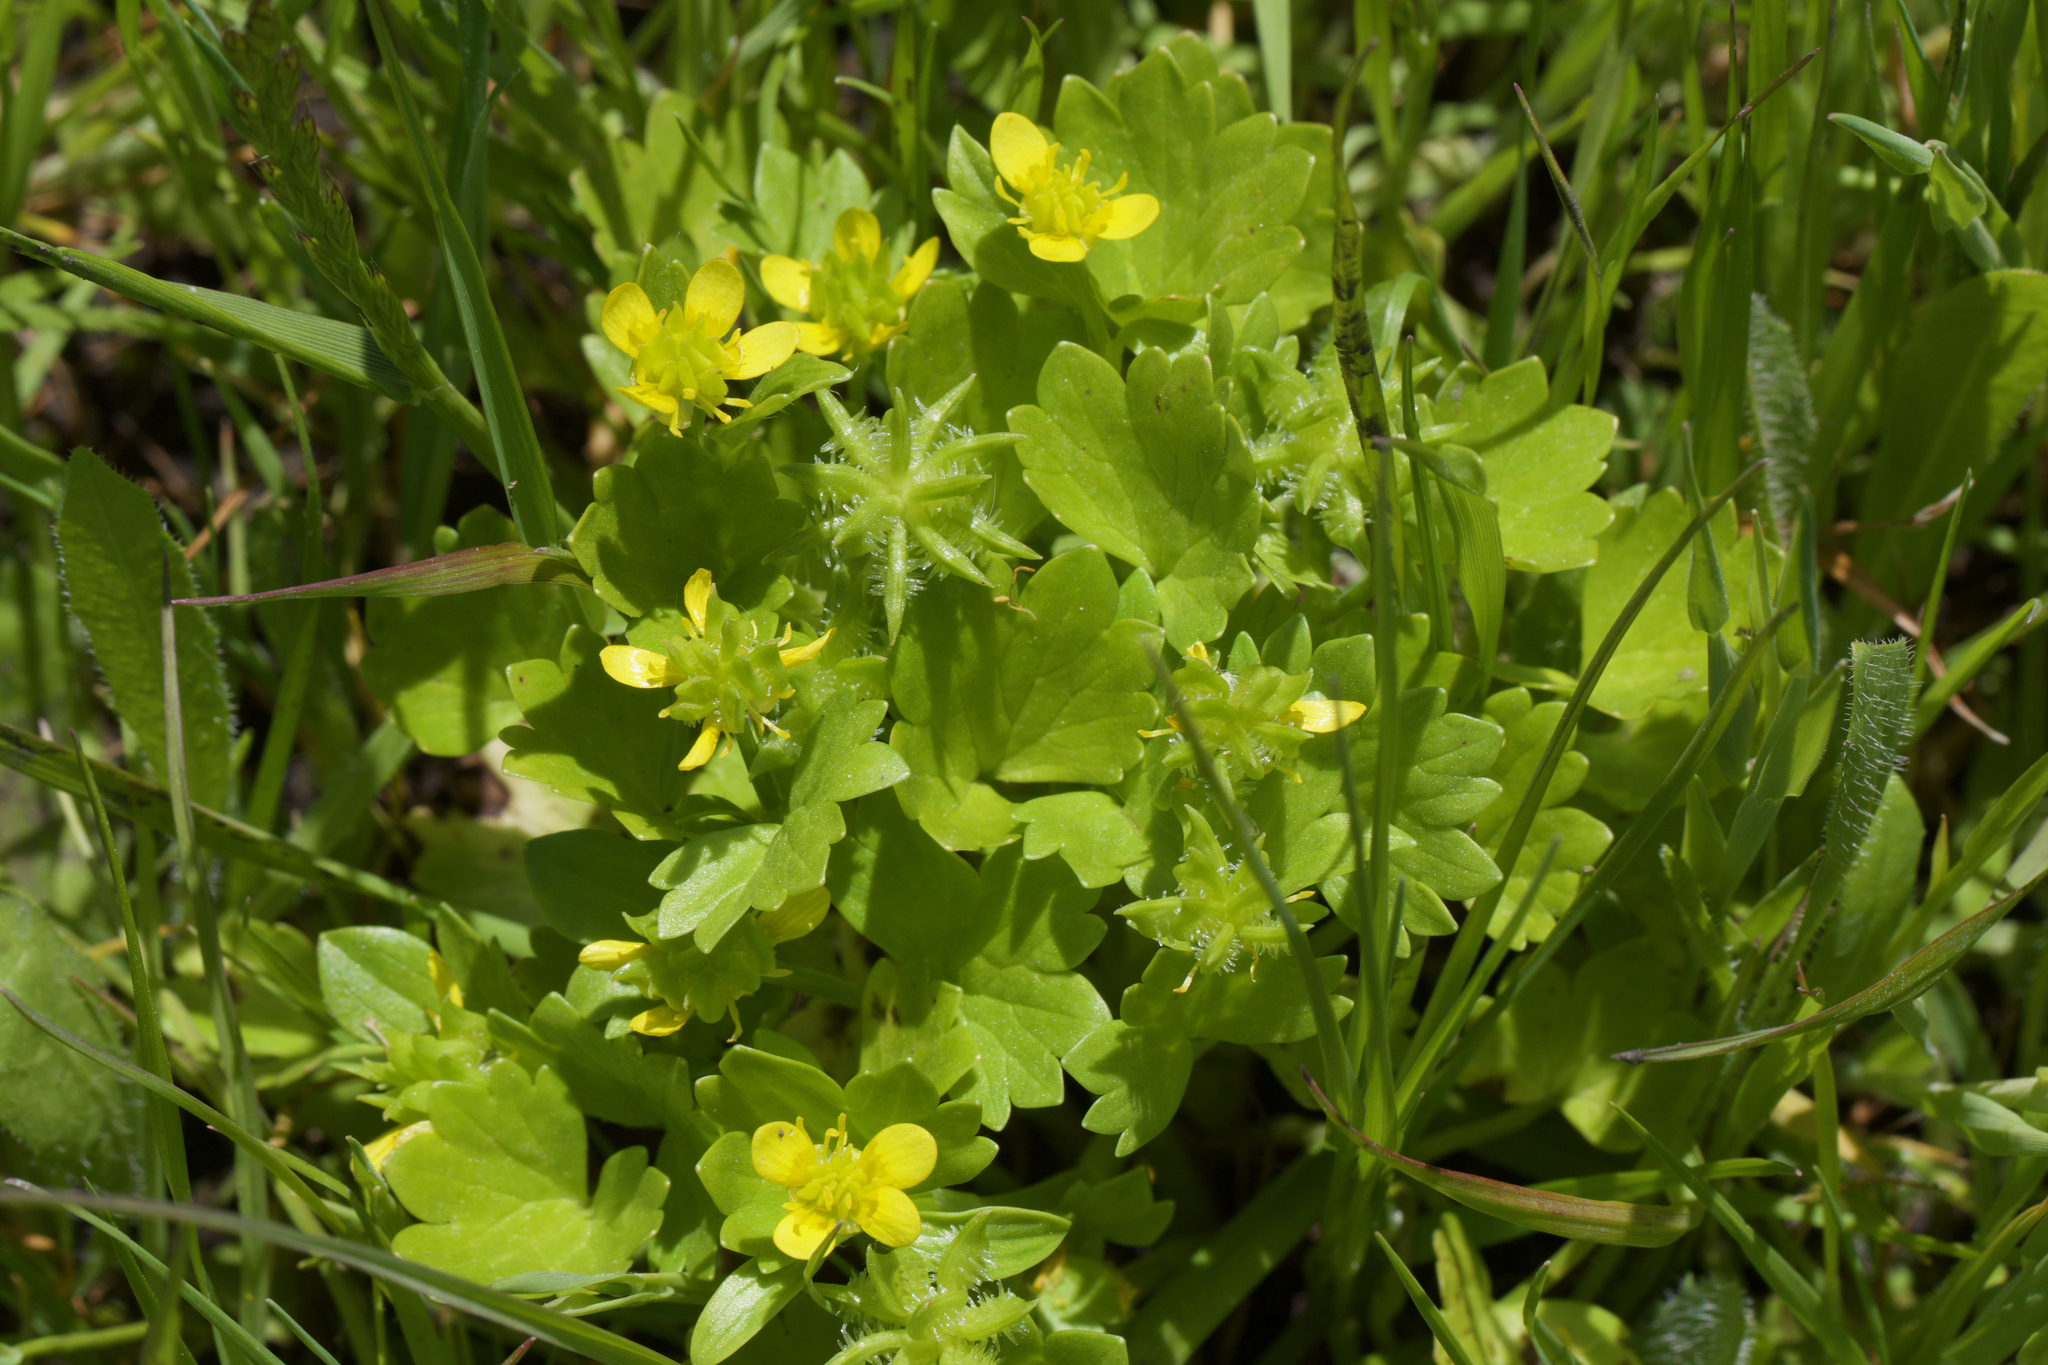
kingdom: Plantae
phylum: Tracheophyta
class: Magnoliopsida
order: Ranunculales
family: Ranunculaceae
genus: Ranunculus
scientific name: Ranunculus muricatus
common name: Rough-fruited buttercup
